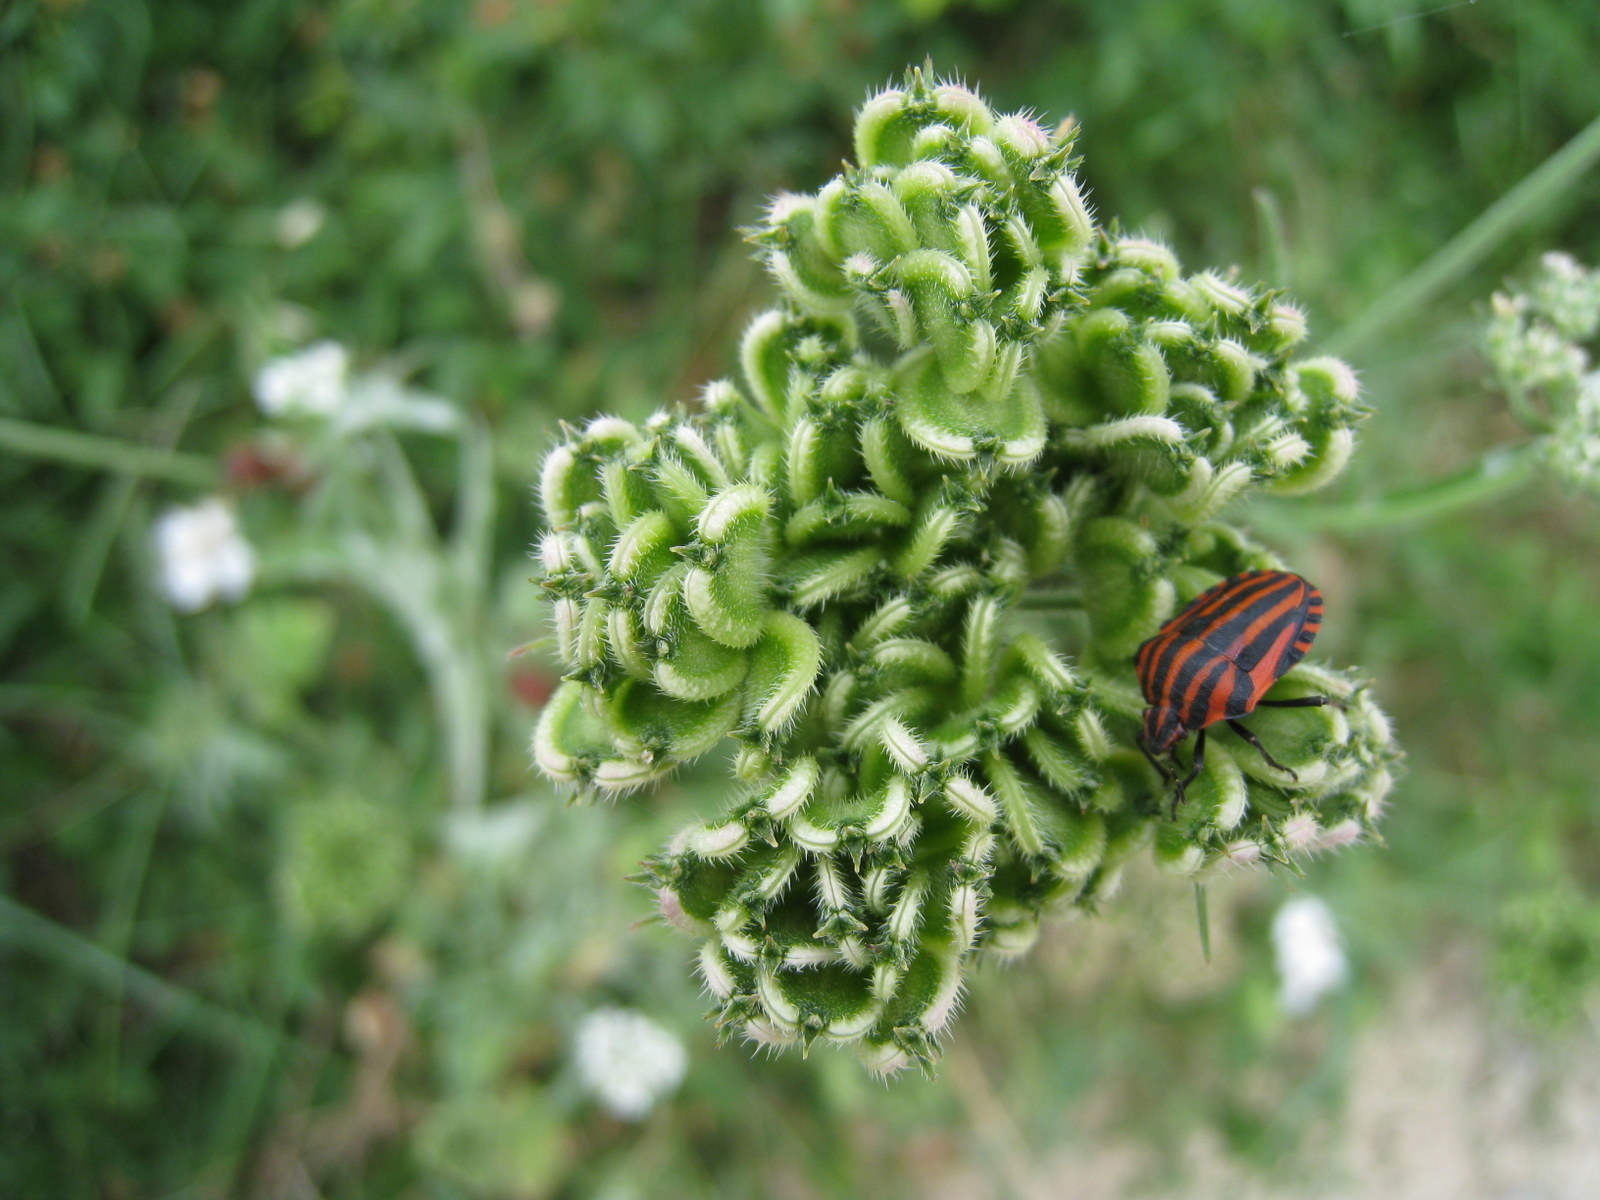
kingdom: Animalia
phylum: Arthropoda
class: Insecta
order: Hemiptera
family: Pentatomidae
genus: Graphosoma
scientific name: Graphosoma italicum
